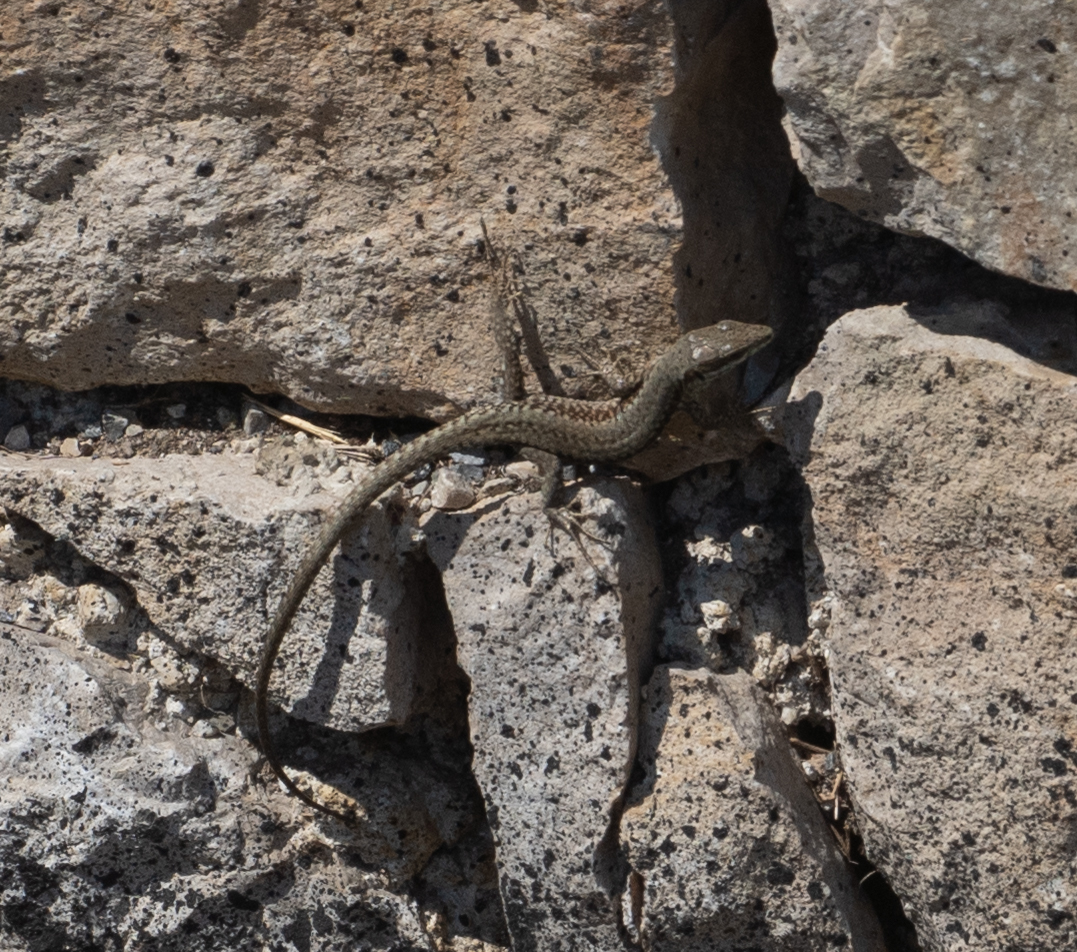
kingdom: Animalia
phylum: Chordata
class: Squamata
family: Lacertidae
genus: Podarcis
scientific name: Podarcis muralis
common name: Common wall lizard
